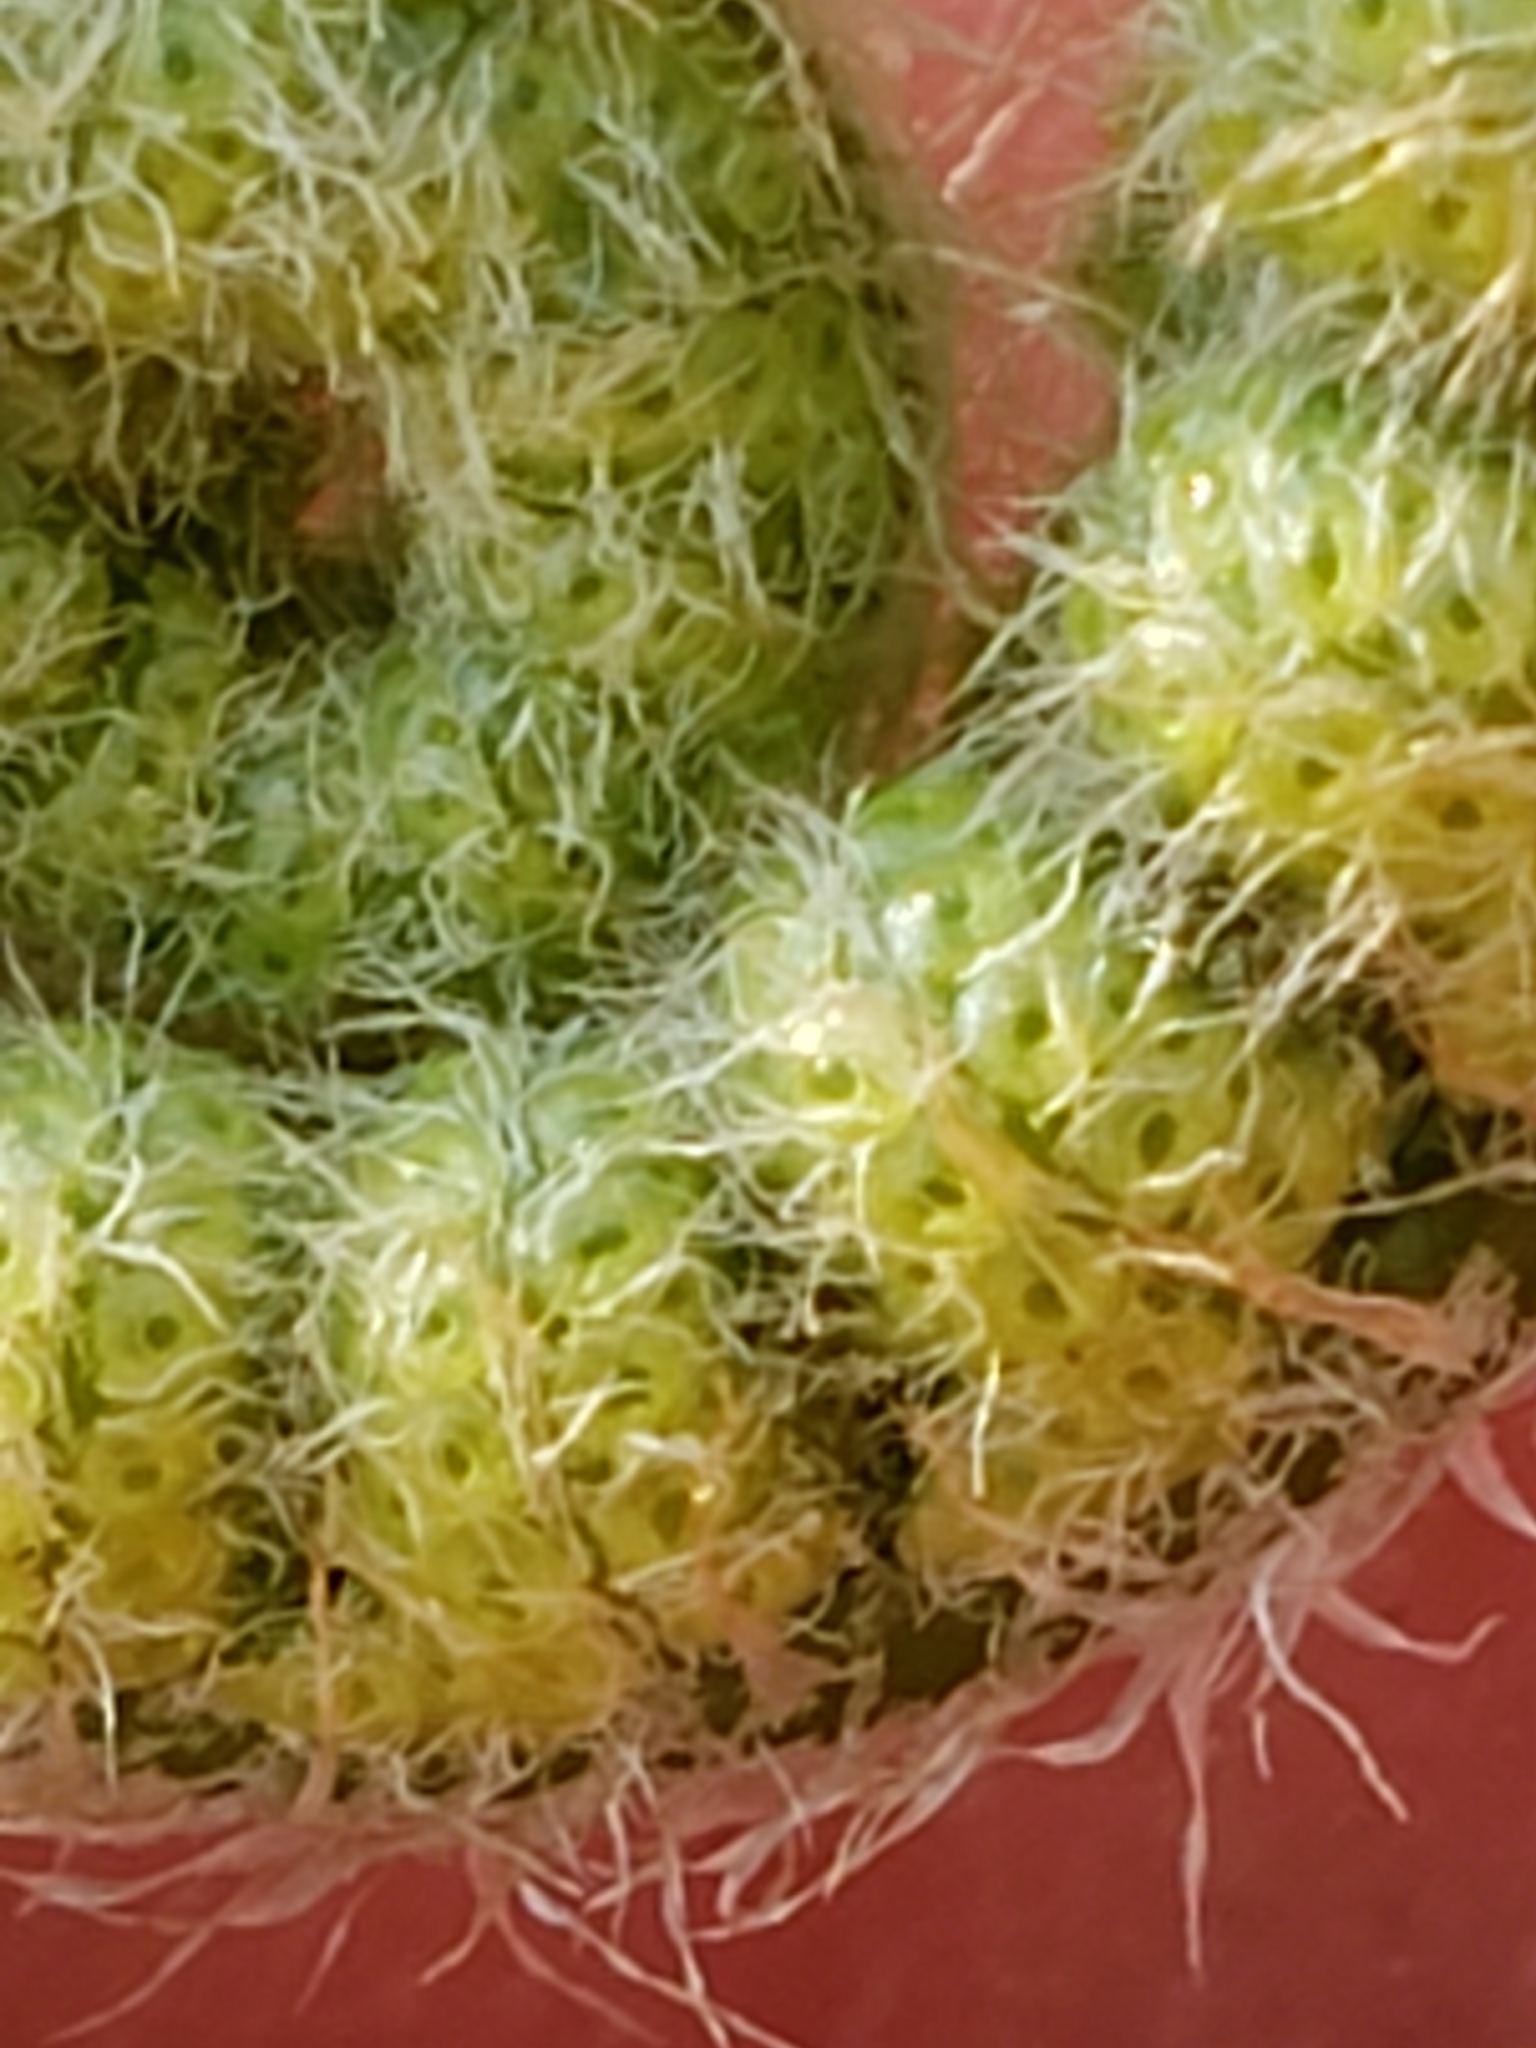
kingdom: Plantae
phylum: Tracheophyta
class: Polypodiopsida
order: Polypodiales
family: Dryopteridaceae
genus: Polystichum
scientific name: Polystichum acrostichoides
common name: Christmas fern
